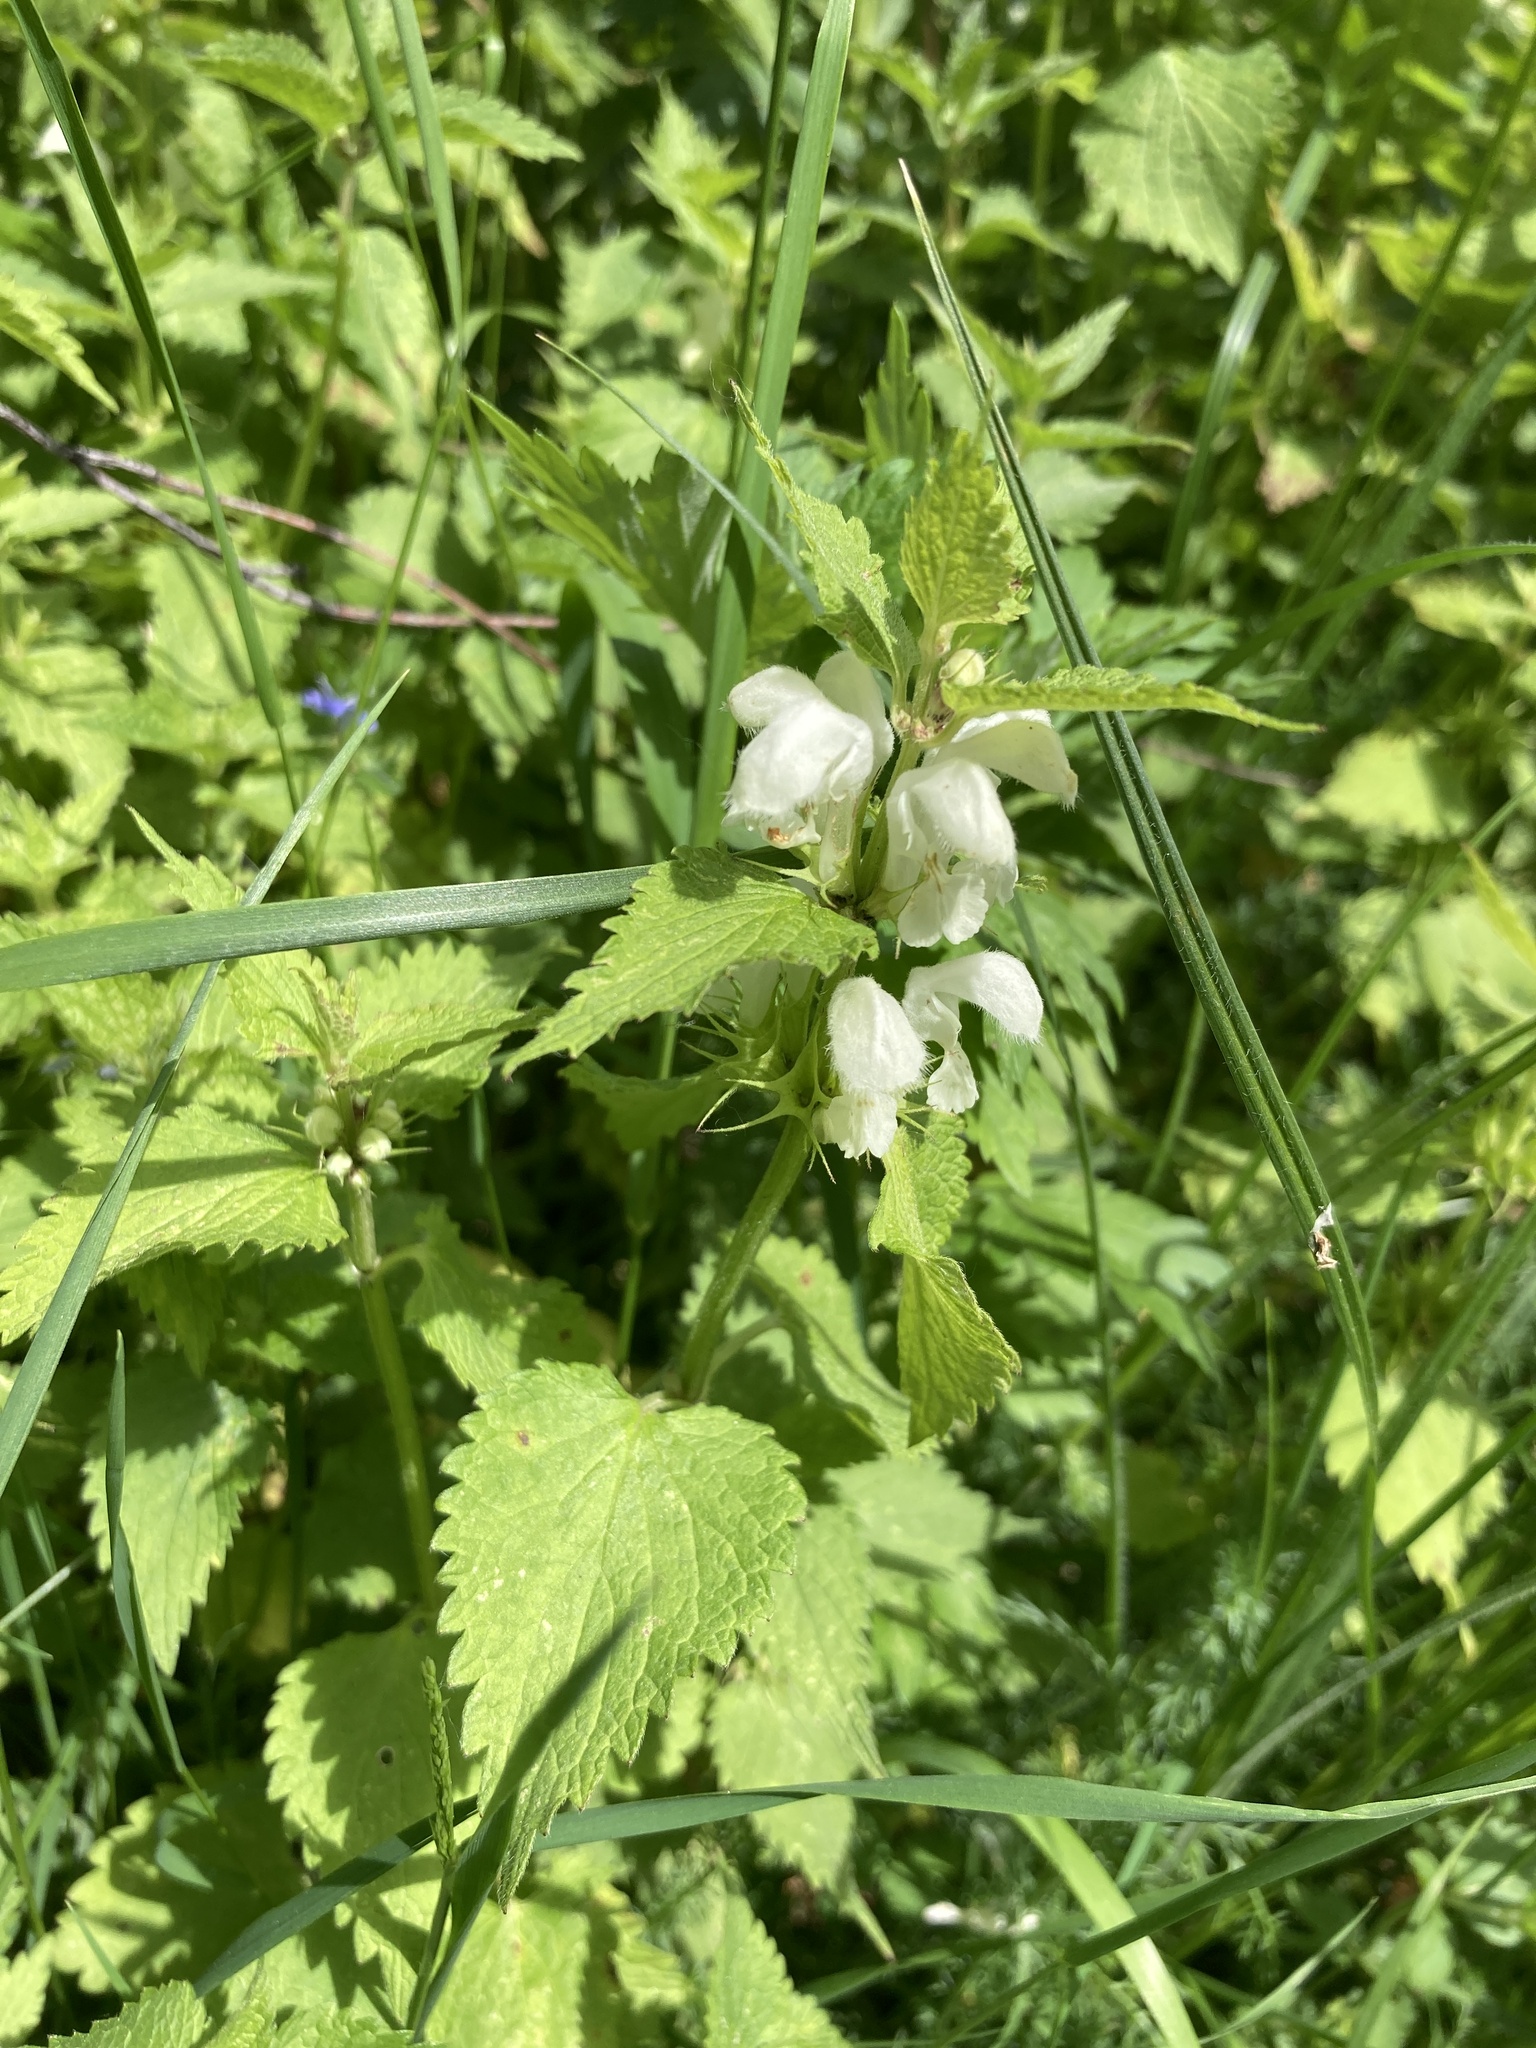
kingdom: Plantae
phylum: Tracheophyta
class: Magnoliopsida
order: Lamiales
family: Lamiaceae
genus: Lamium
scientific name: Lamium album
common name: White dead-nettle
